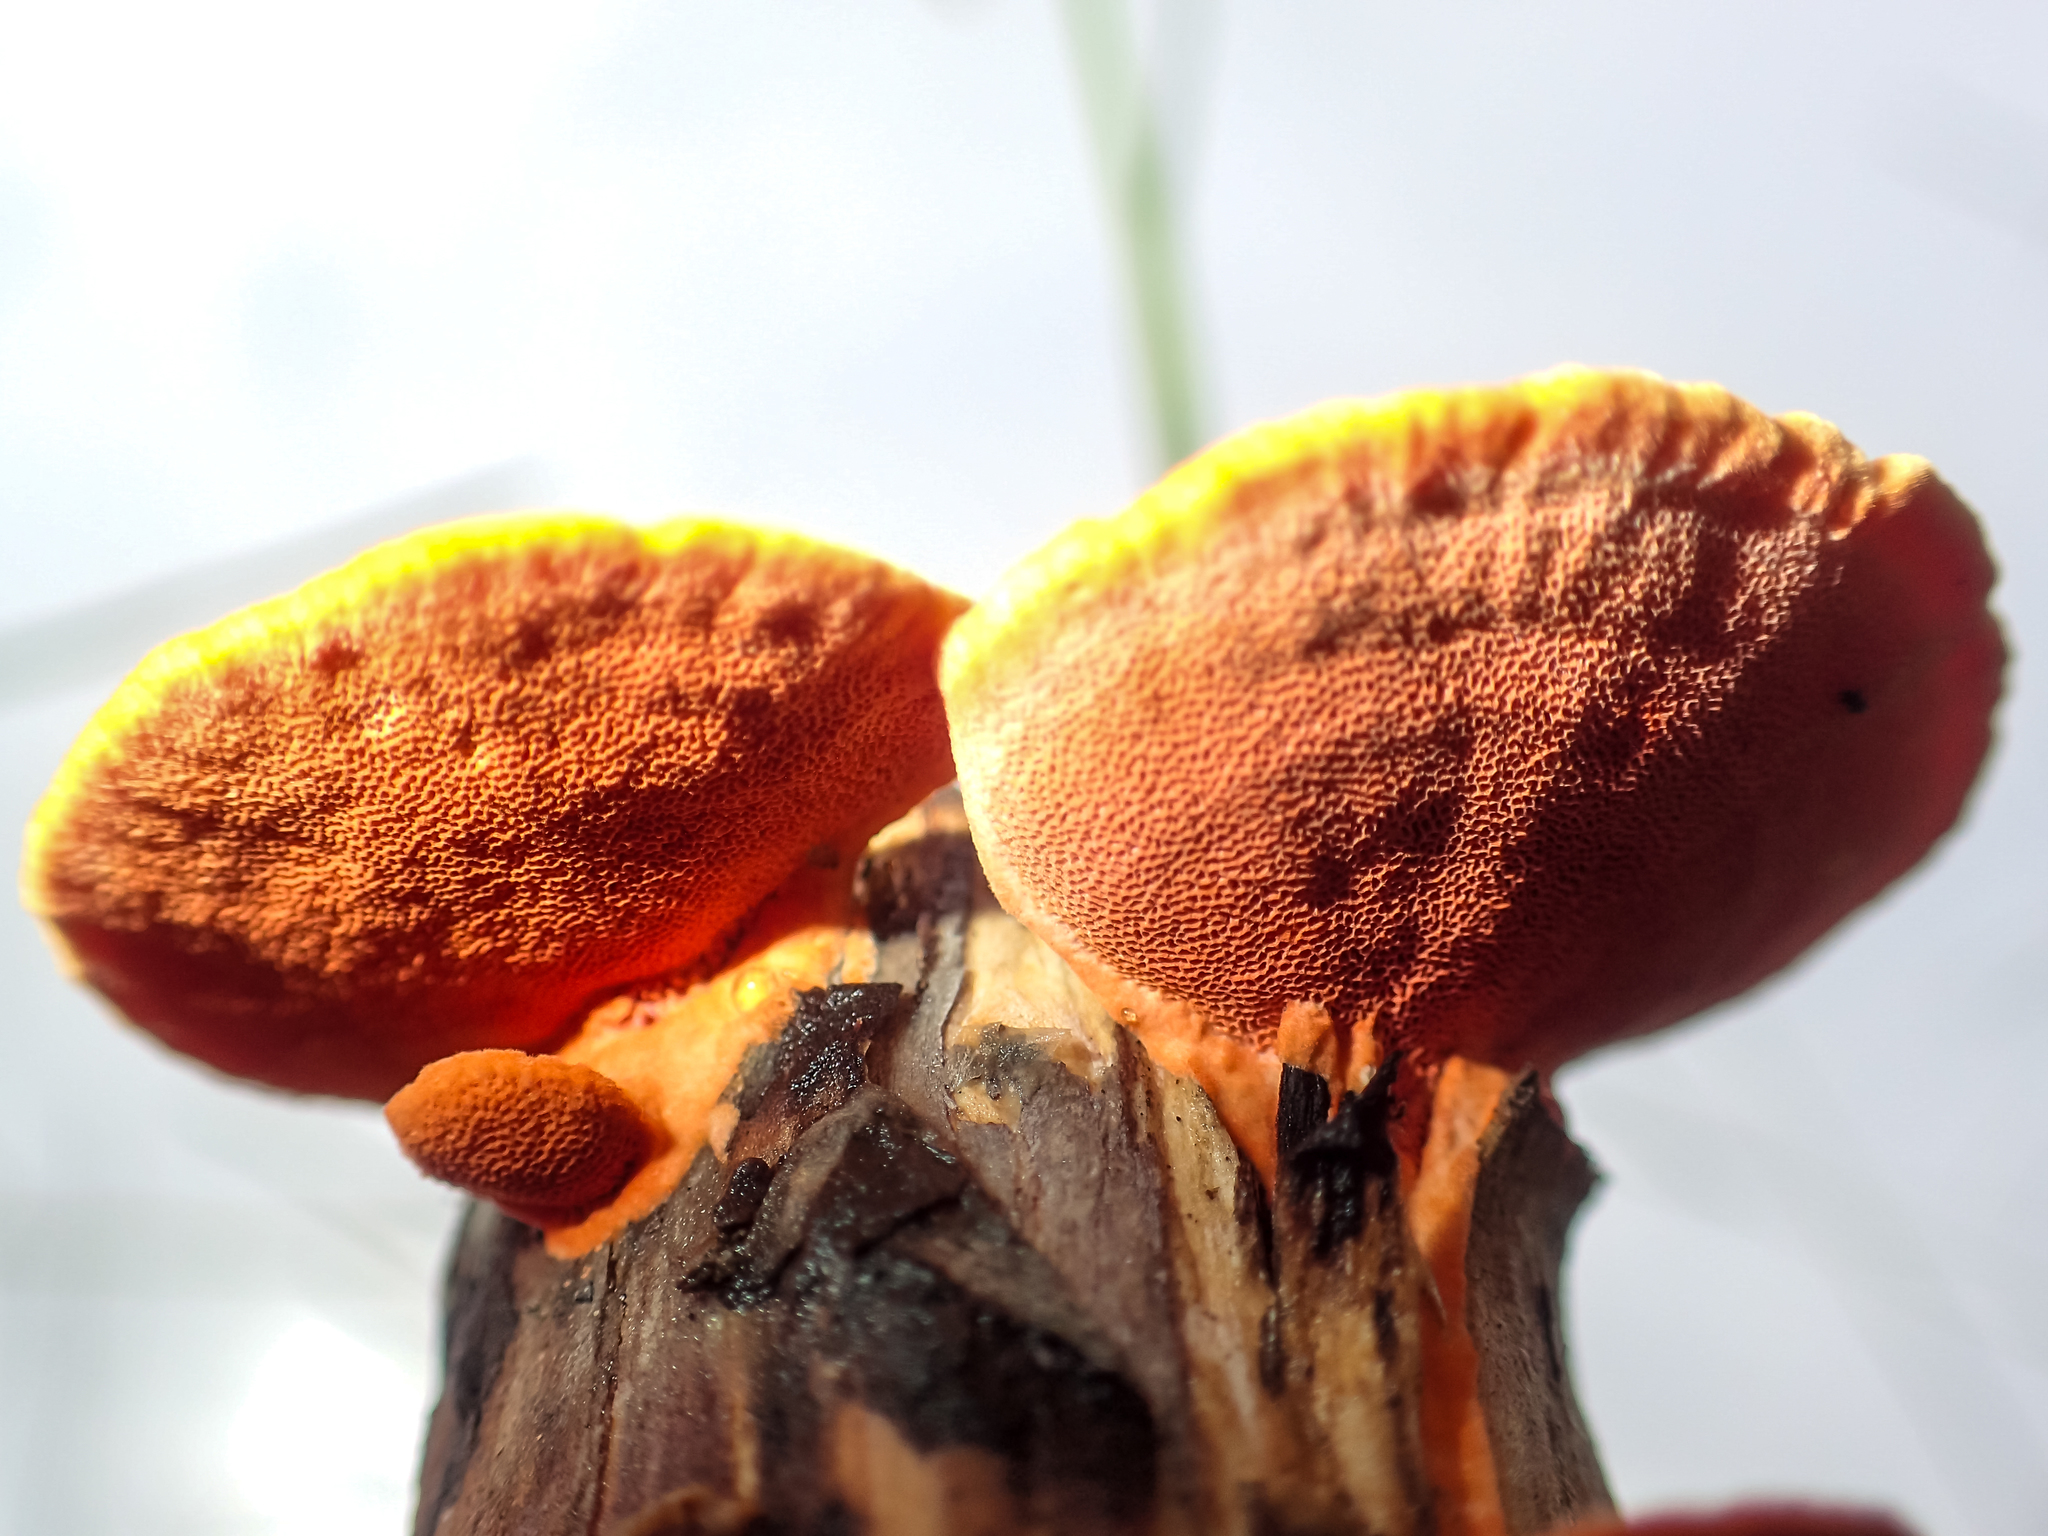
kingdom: Fungi
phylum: Basidiomycota
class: Agaricomycetes
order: Polyporales
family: Polyporaceae
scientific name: Polyporaceae
